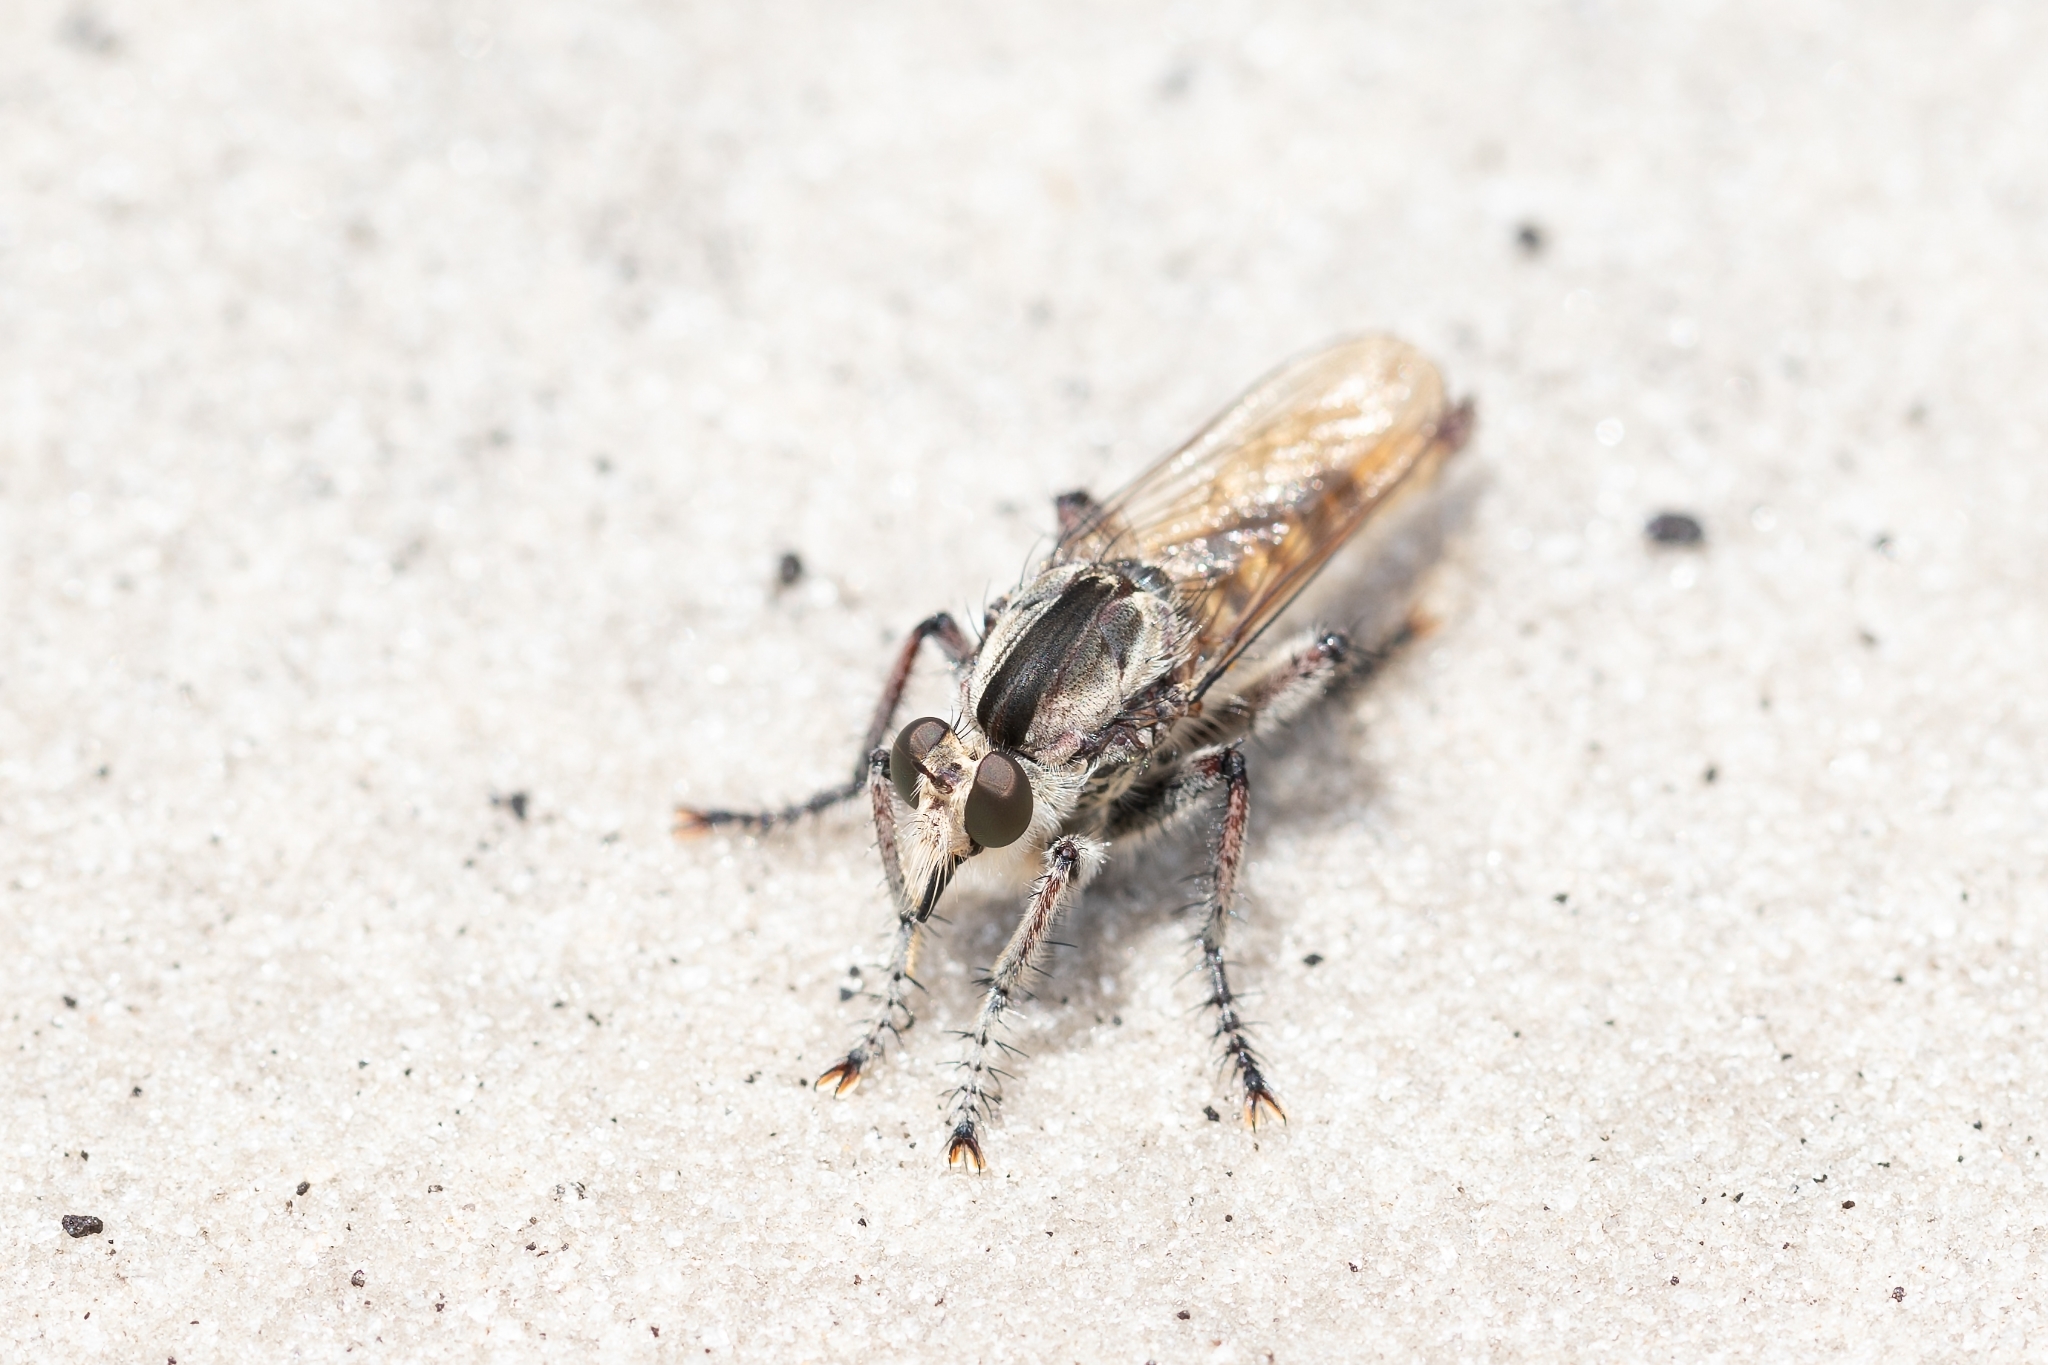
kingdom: Animalia
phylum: Arthropoda
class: Insecta
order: Diptera
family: Asilidae
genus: Triorla
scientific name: Triorla interrupta
